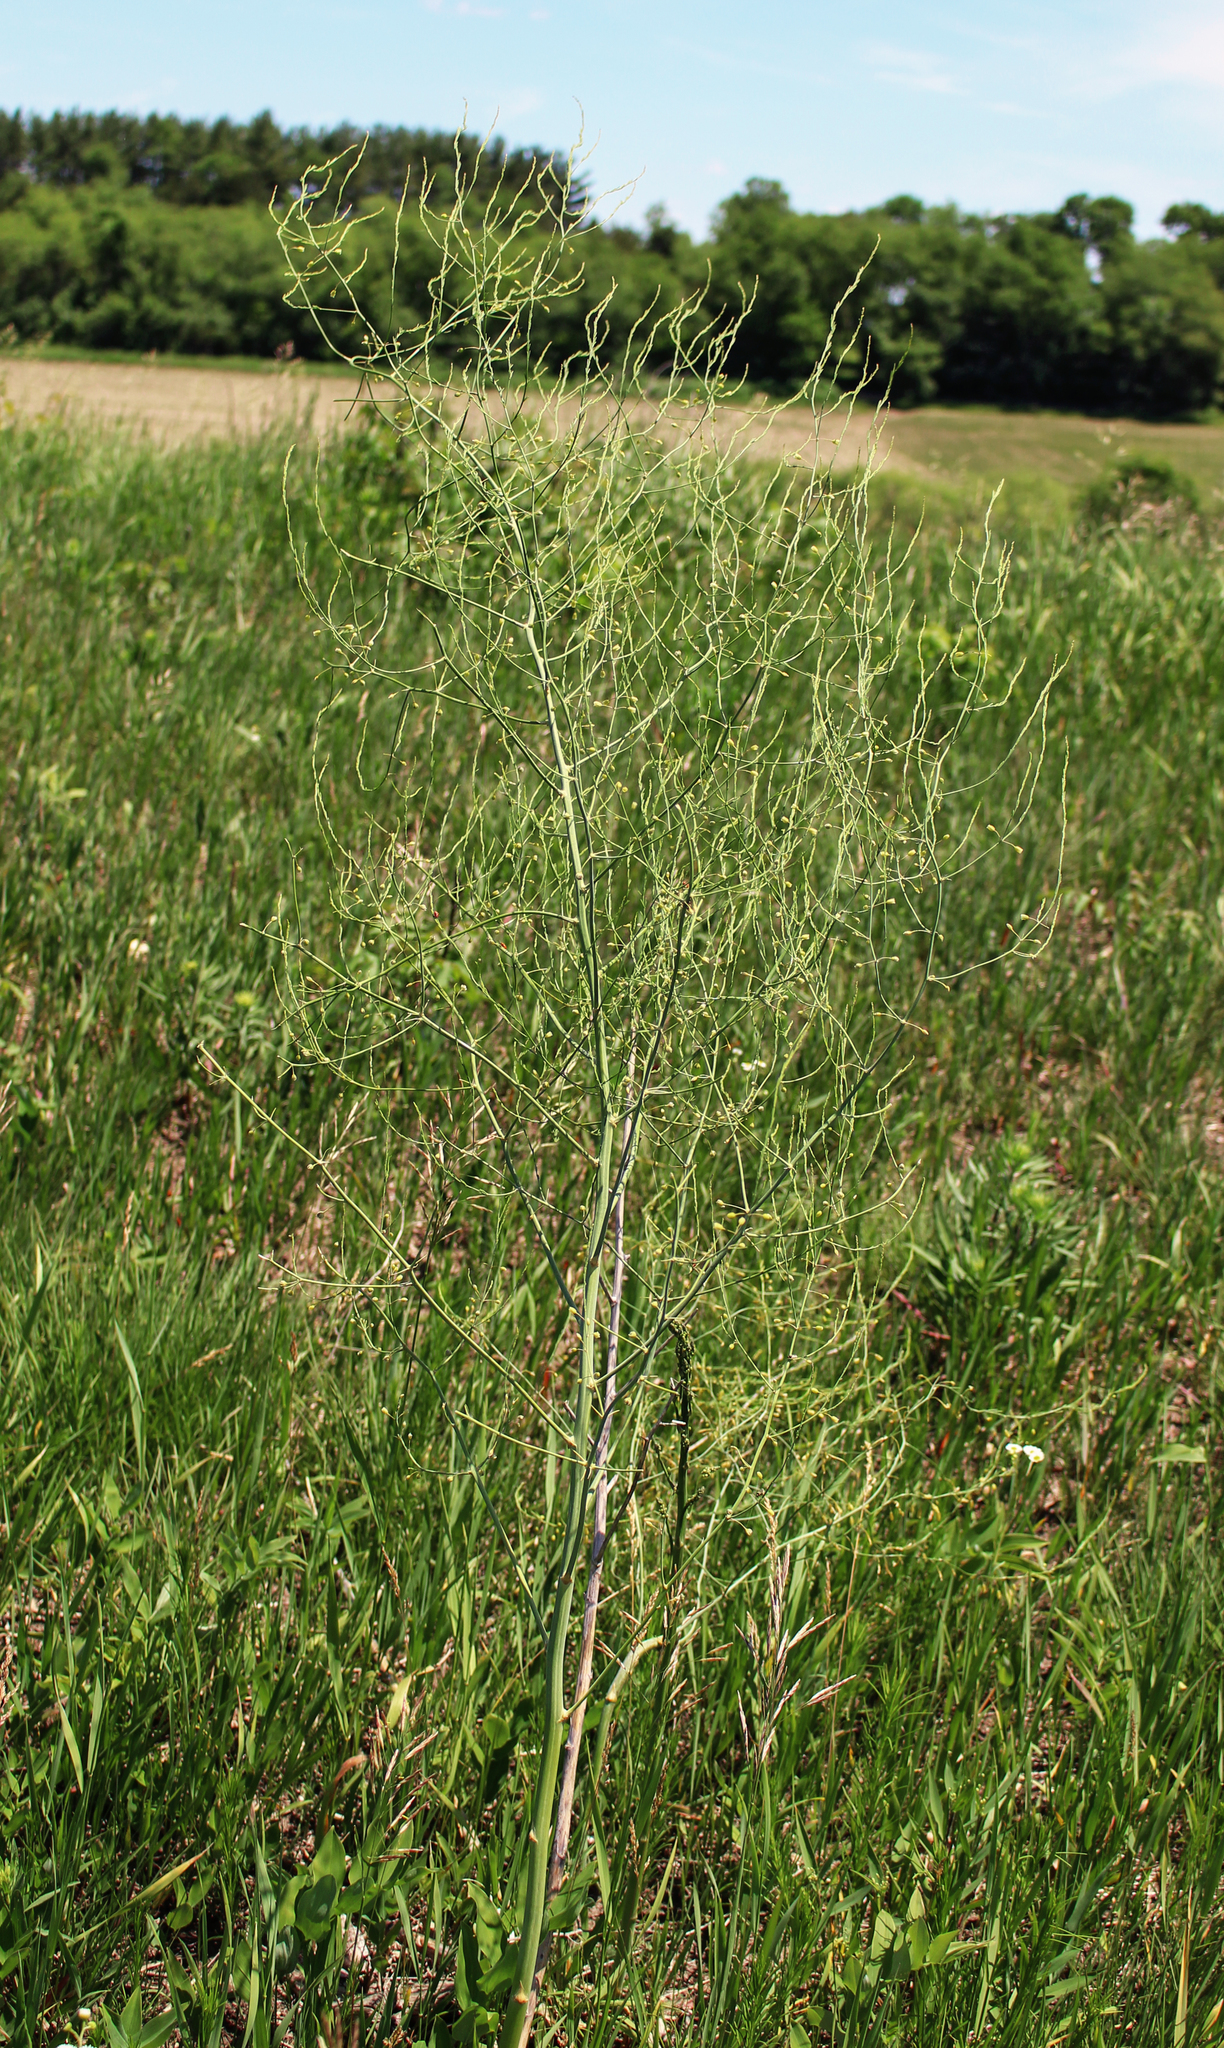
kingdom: Plantae
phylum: Tracheophyta
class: Liliopsida
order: Asparagales
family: Asparagaceae
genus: Asparagus
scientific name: Asparagus officinalis
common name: Garden asparagus
